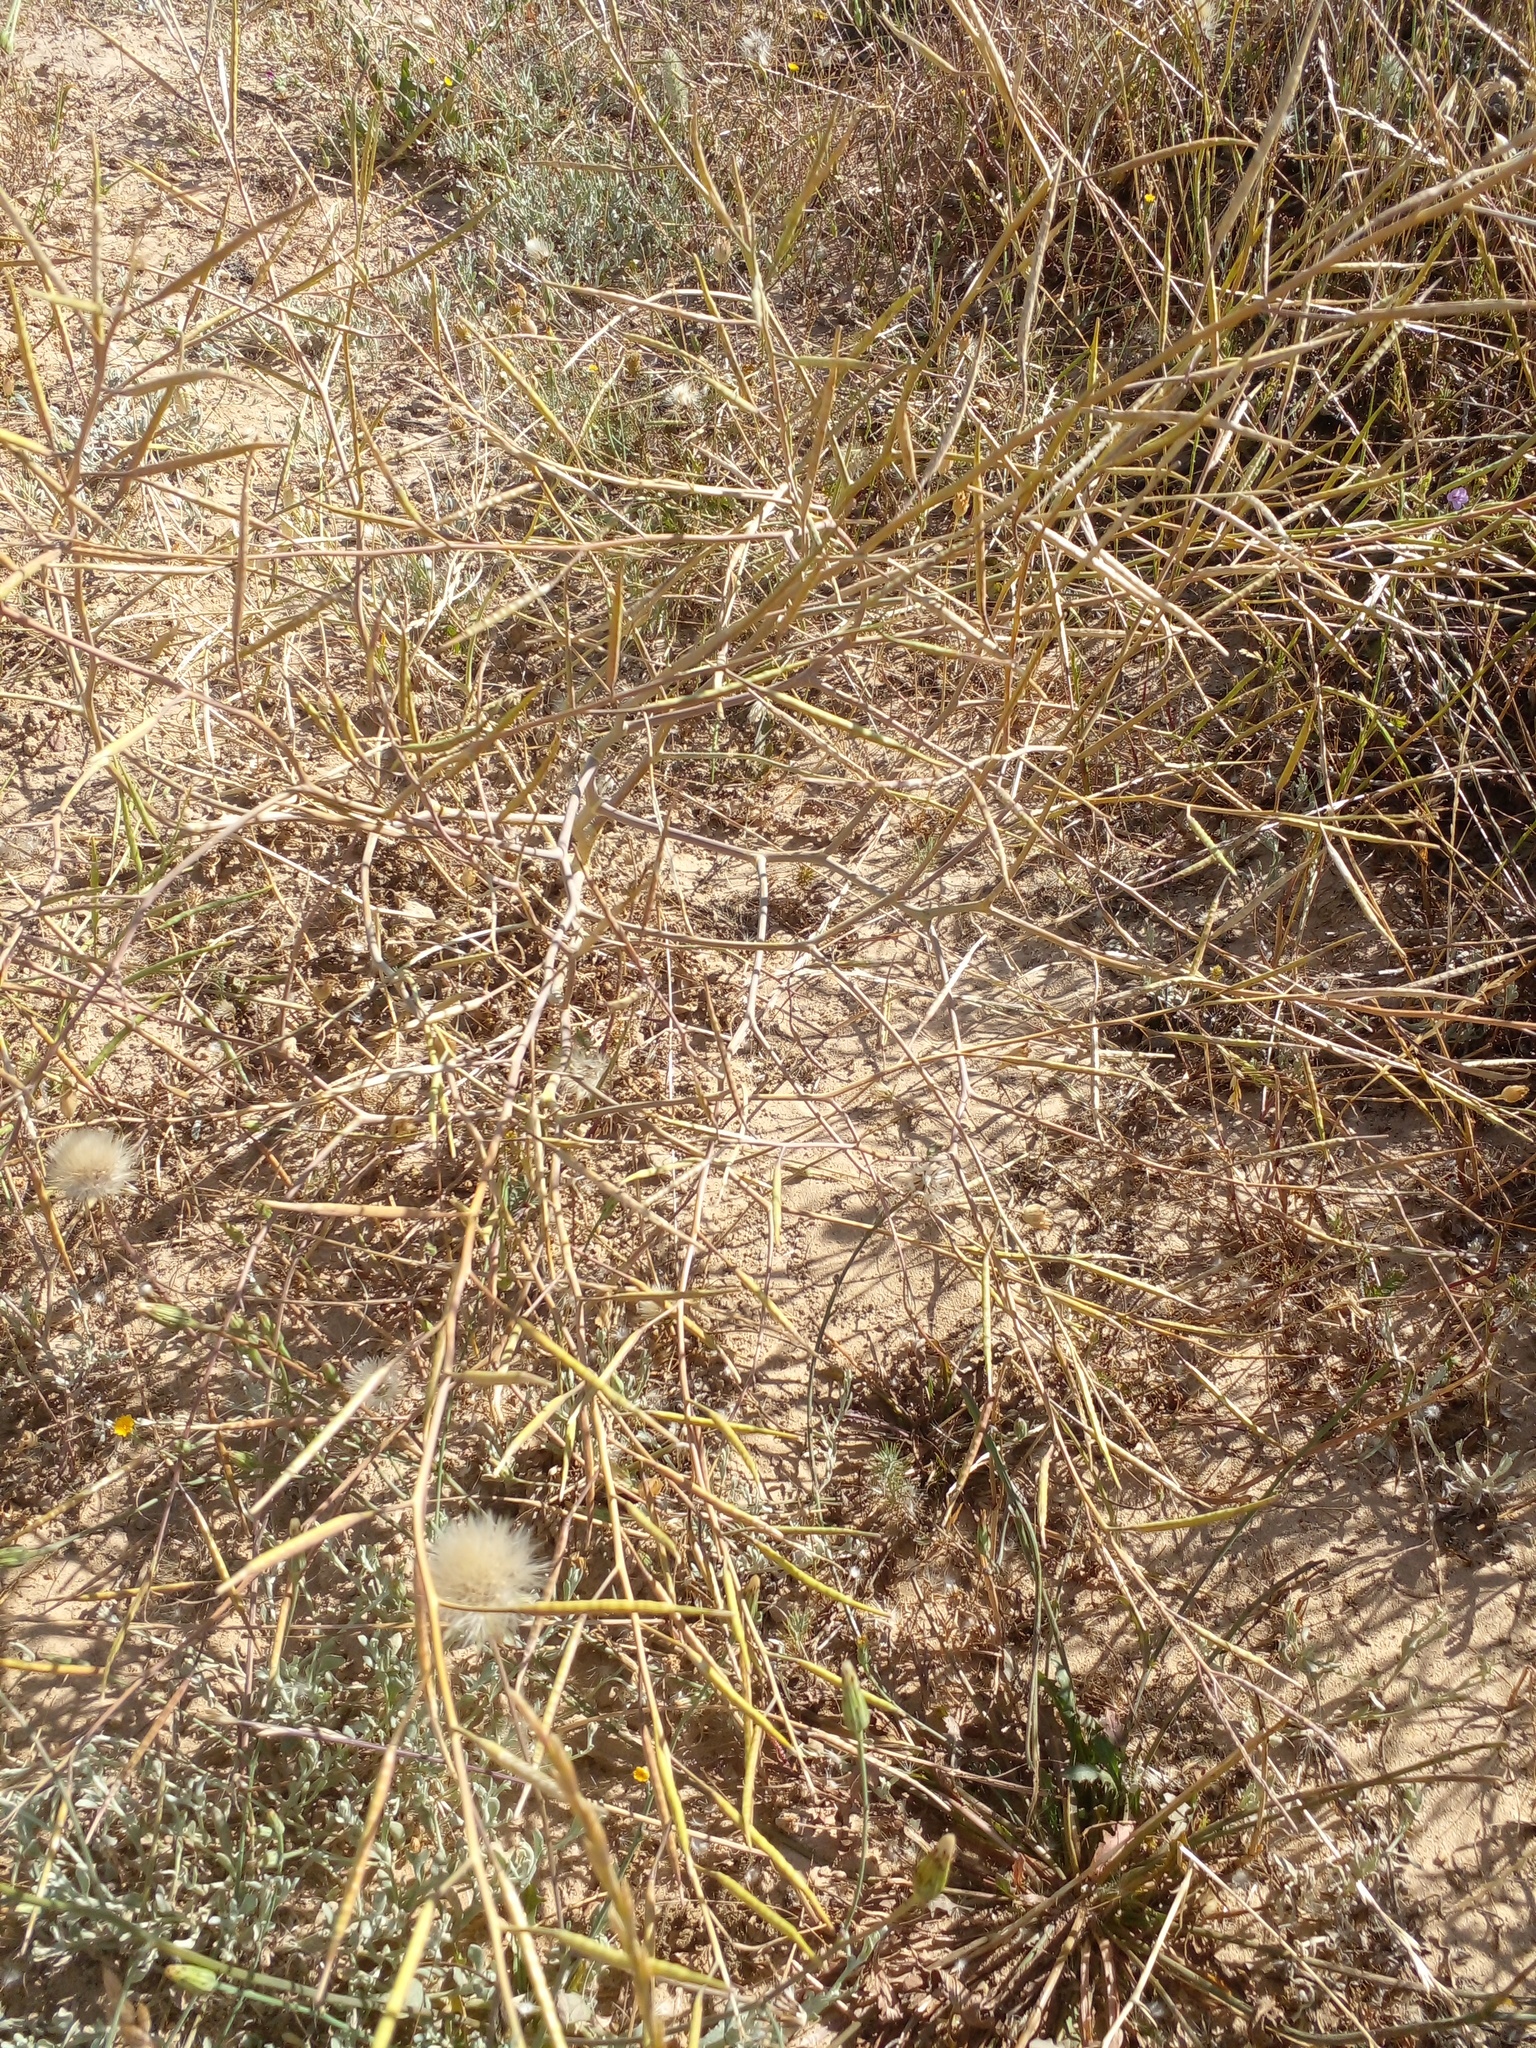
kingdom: Plantae
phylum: Tracheophyta
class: Magnoliopsida
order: Brassicales
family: Brassicaceae
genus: Brassica
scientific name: Brassica tournefortii
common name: Pale cabbage
